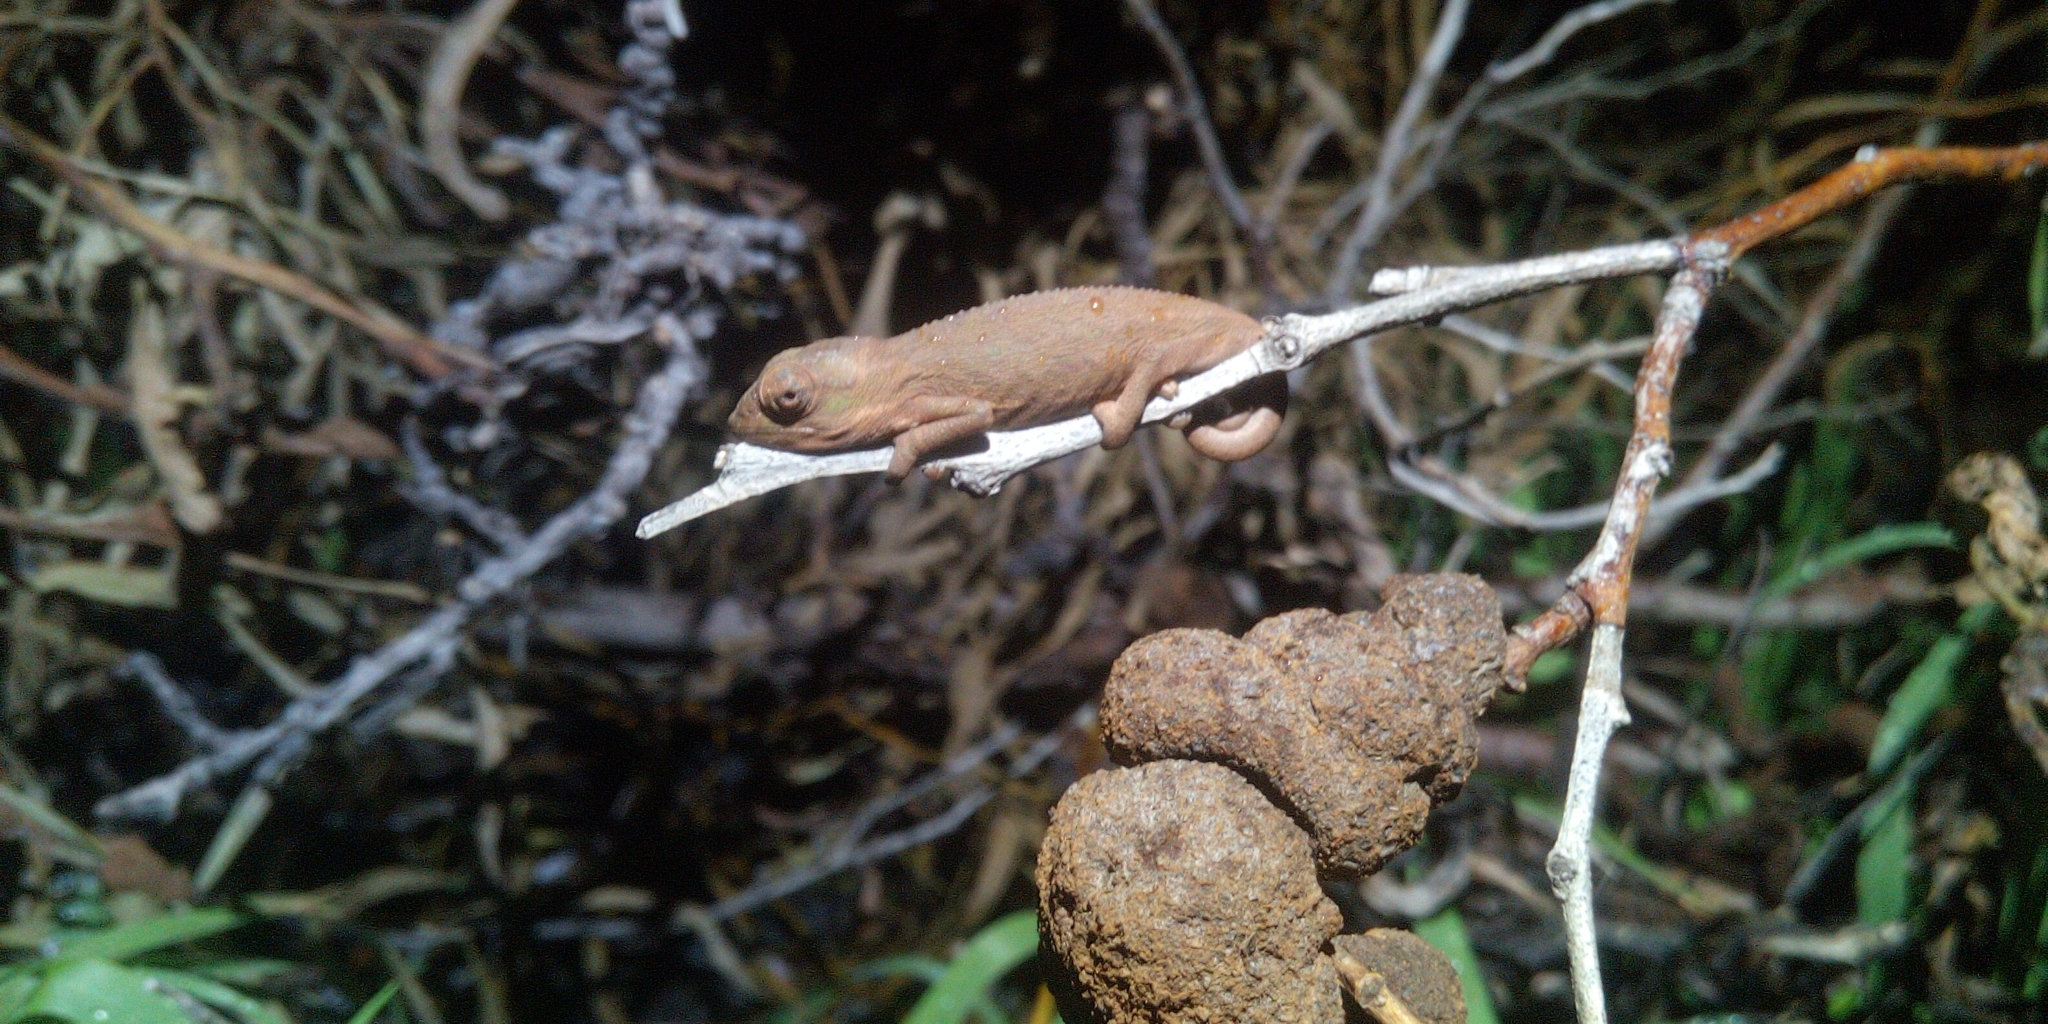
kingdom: Animalia
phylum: Chordata
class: Squamata
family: Chamaeleonidae
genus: Bradypodion
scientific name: Bradypodion pumilum
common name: Cape dwarf chameleon
